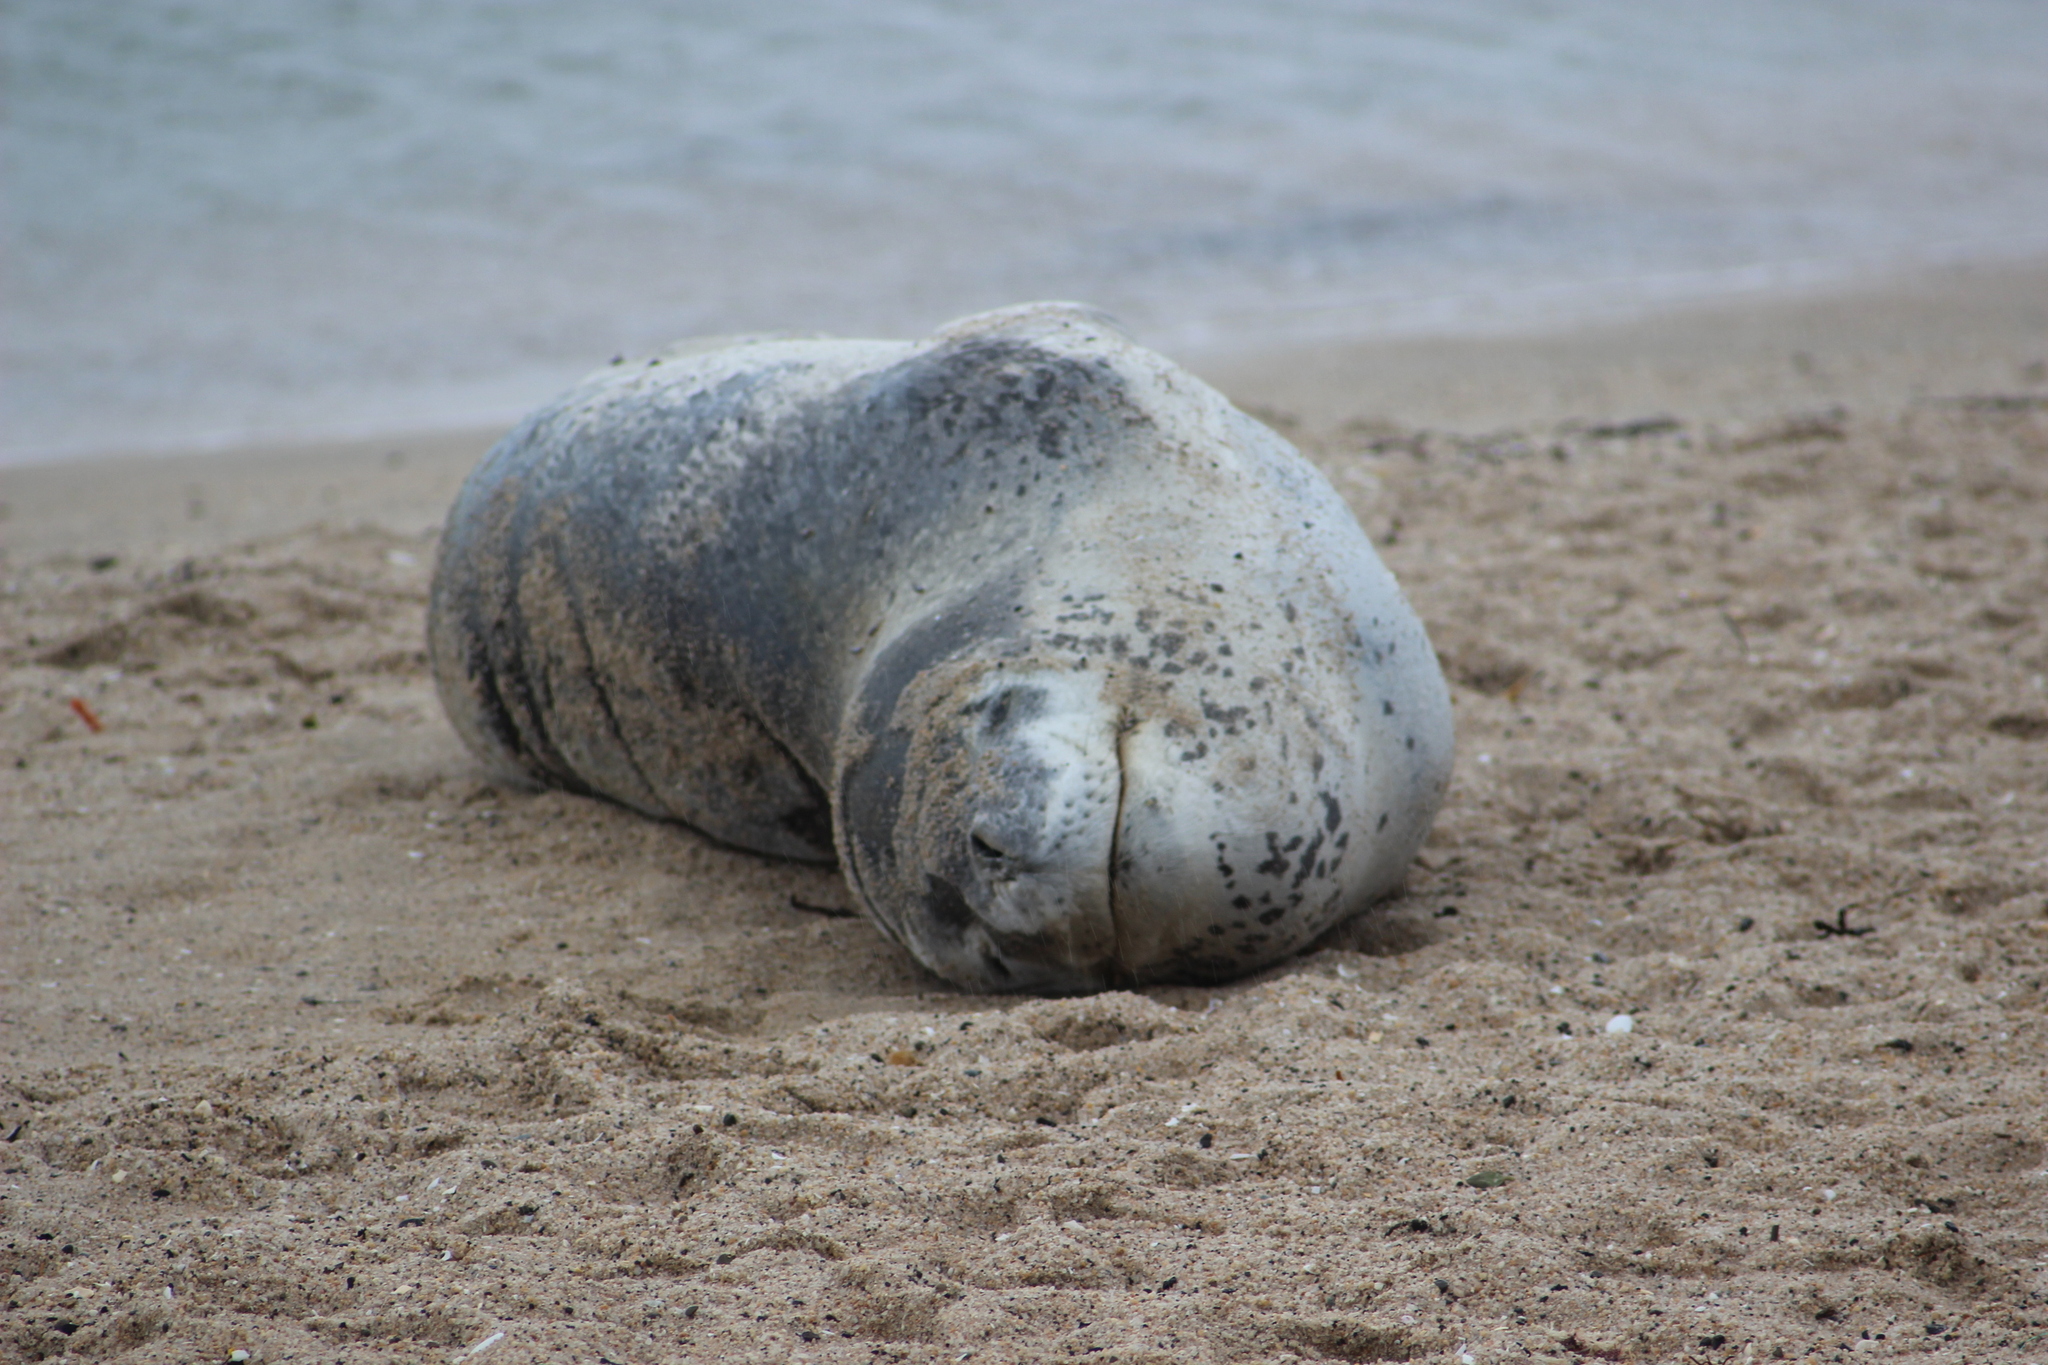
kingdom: Animalia
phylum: Chordata
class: Mammalia
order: Carnivora
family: Phocidae
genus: Hydrurga
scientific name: Hydrurga leptonyx
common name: Leopard seal
